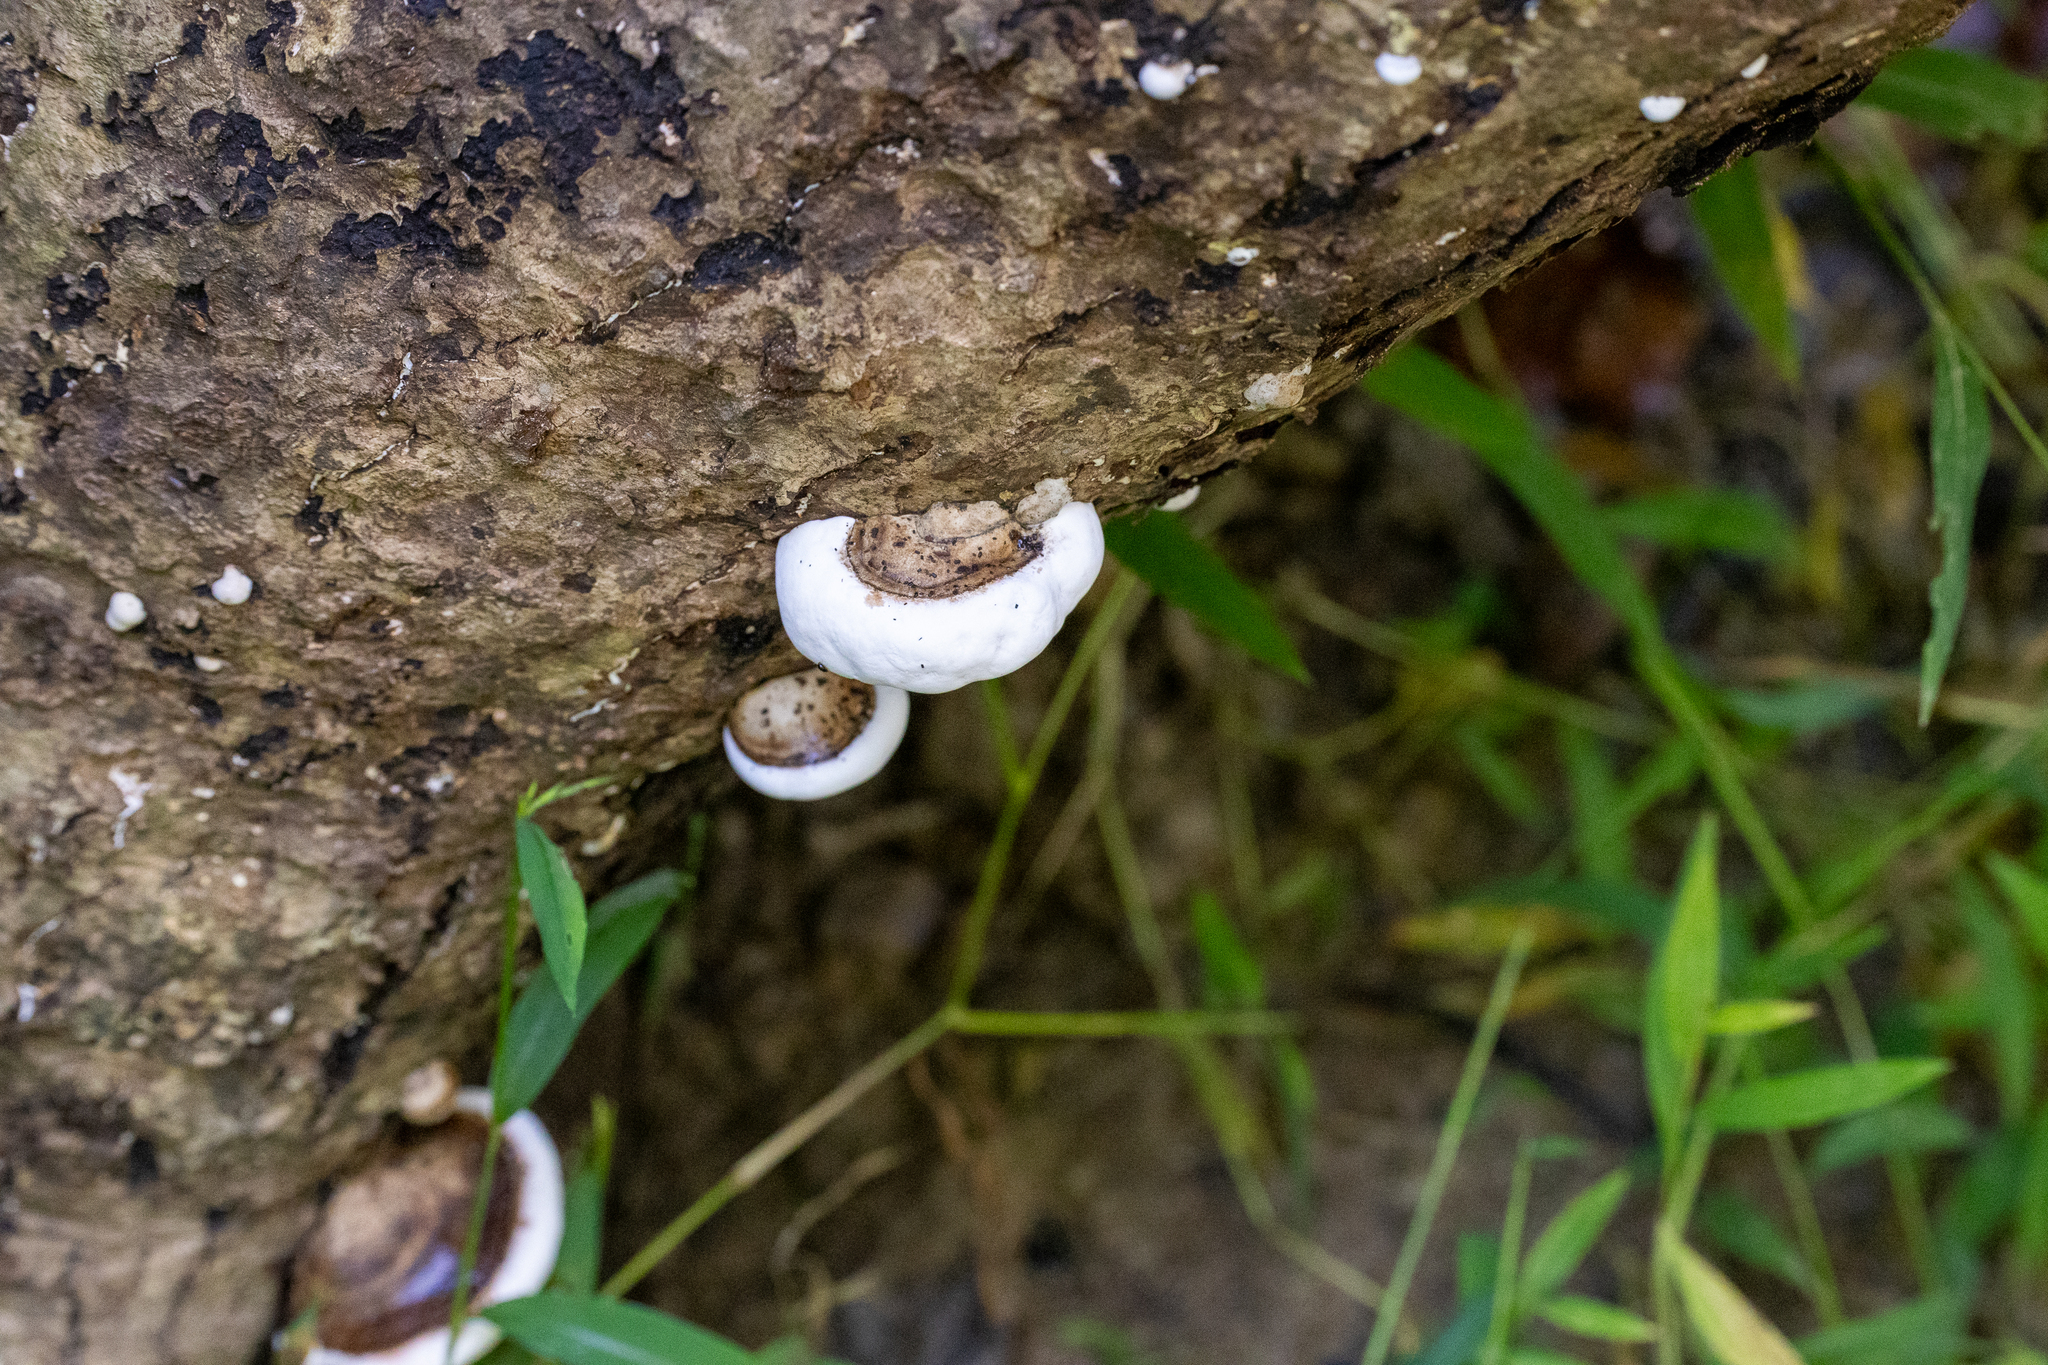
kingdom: Fungi
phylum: Basidiomycota
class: Agaricomycetes
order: Polyporales
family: Polyporaceae
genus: Ganoderma
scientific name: Ganoderma applanatum
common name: Artist's bracket
